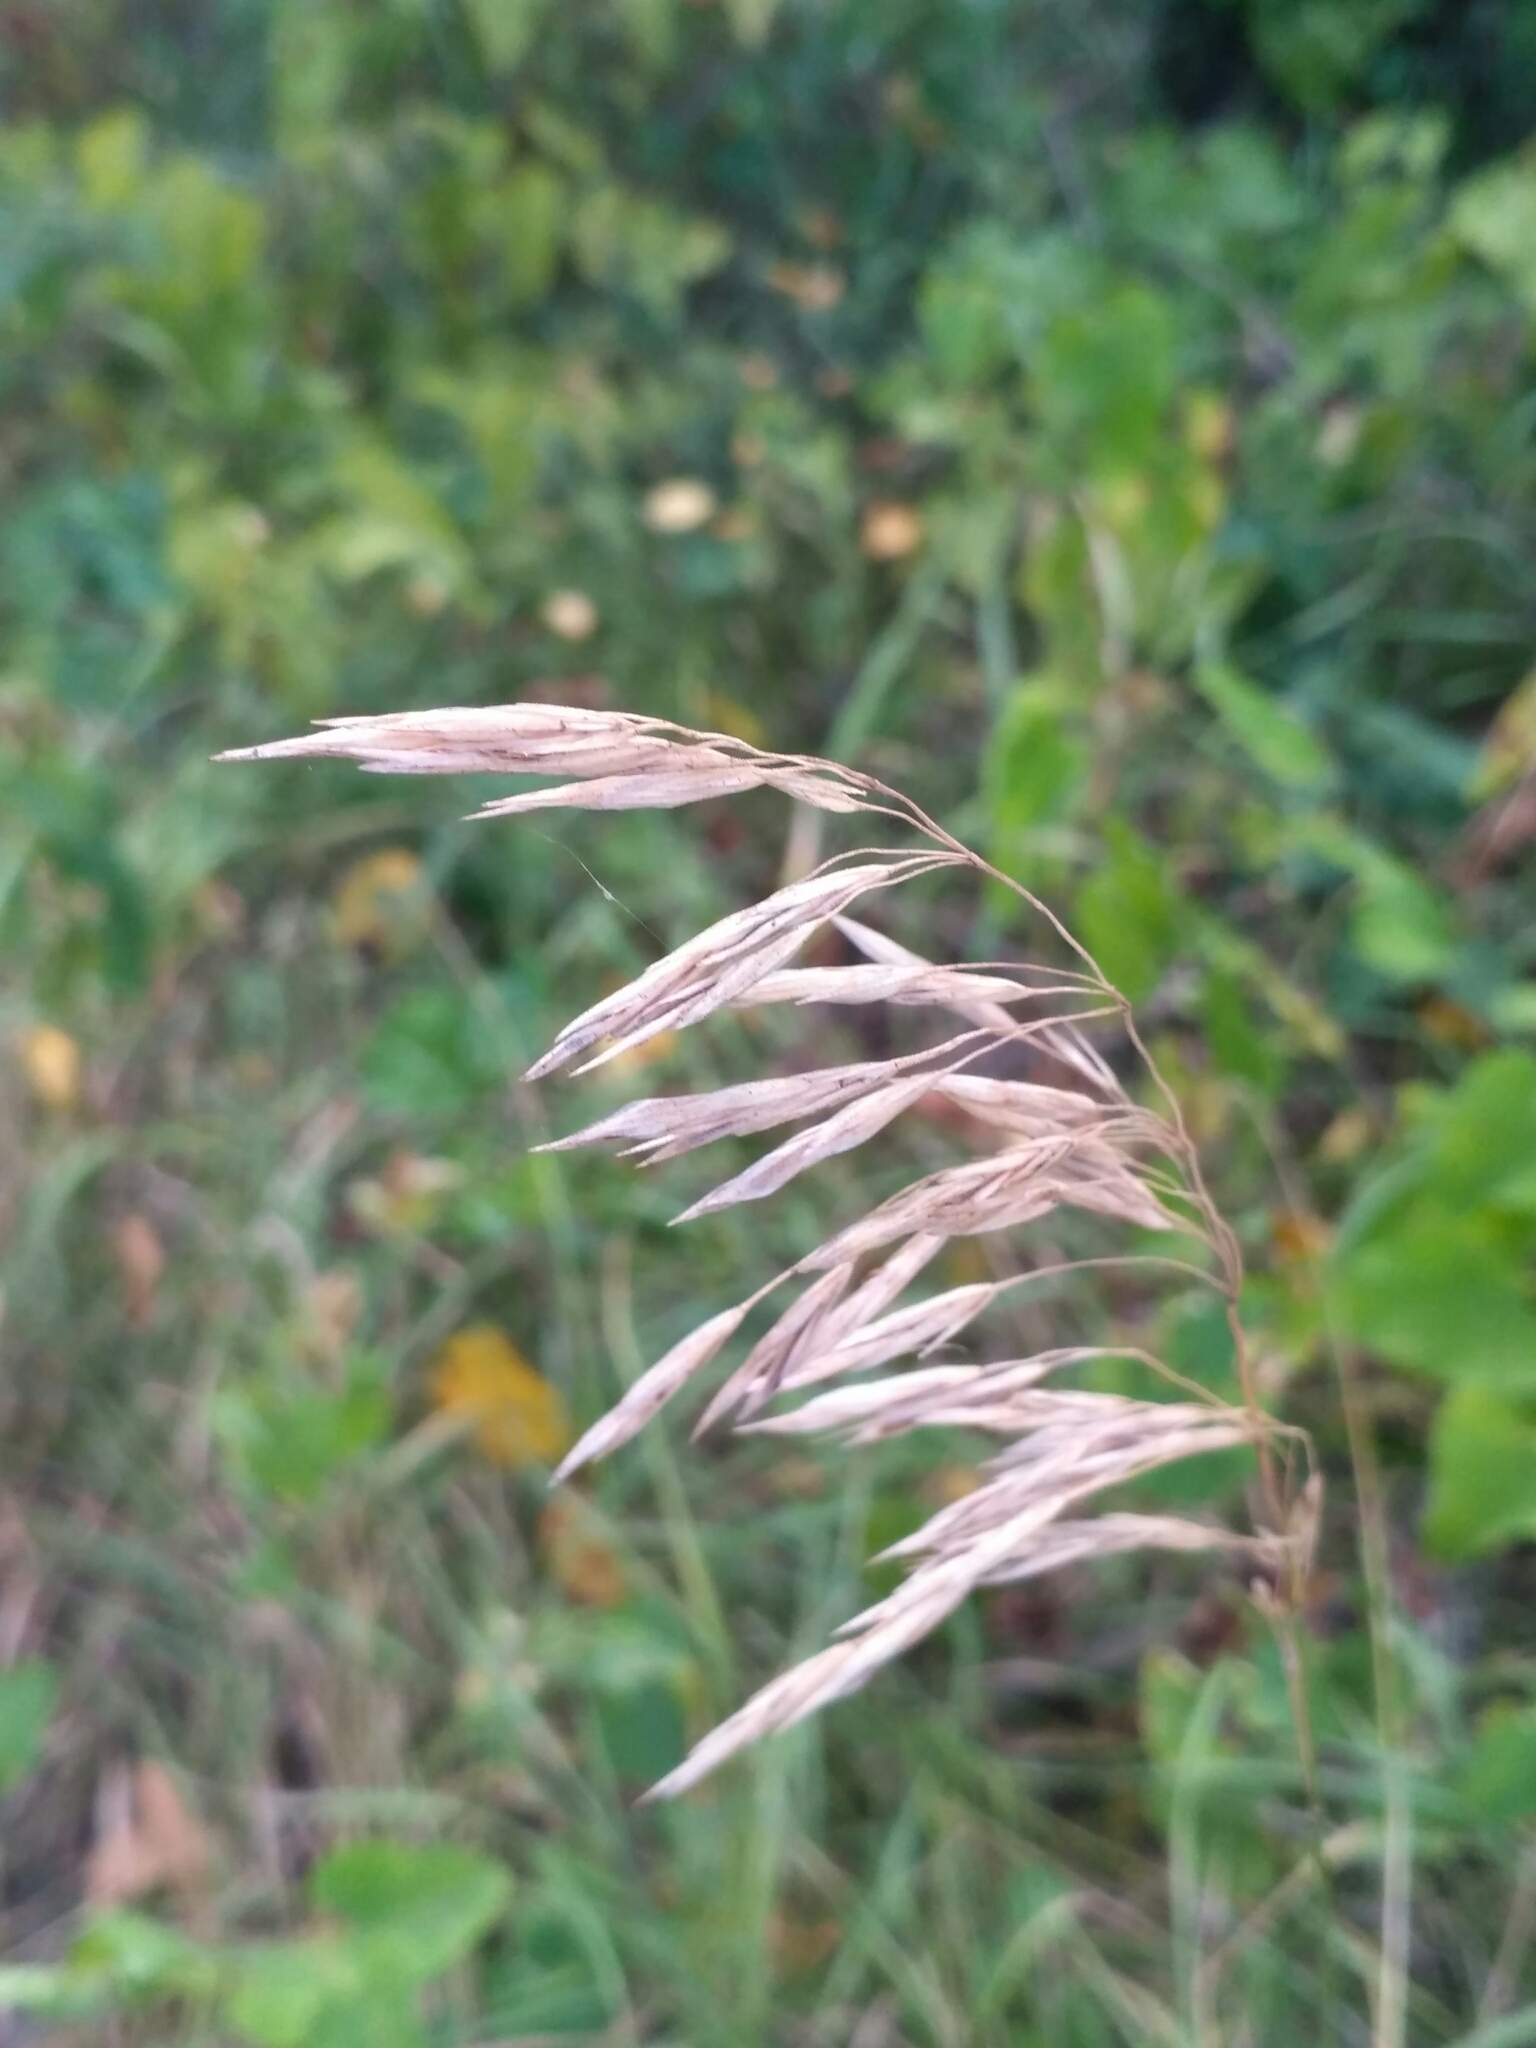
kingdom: Plantae
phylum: Tracheophyta
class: Liliopsida
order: Poales
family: Poaceae
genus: Bromus
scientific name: Bromus inermis
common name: Smooth brome
